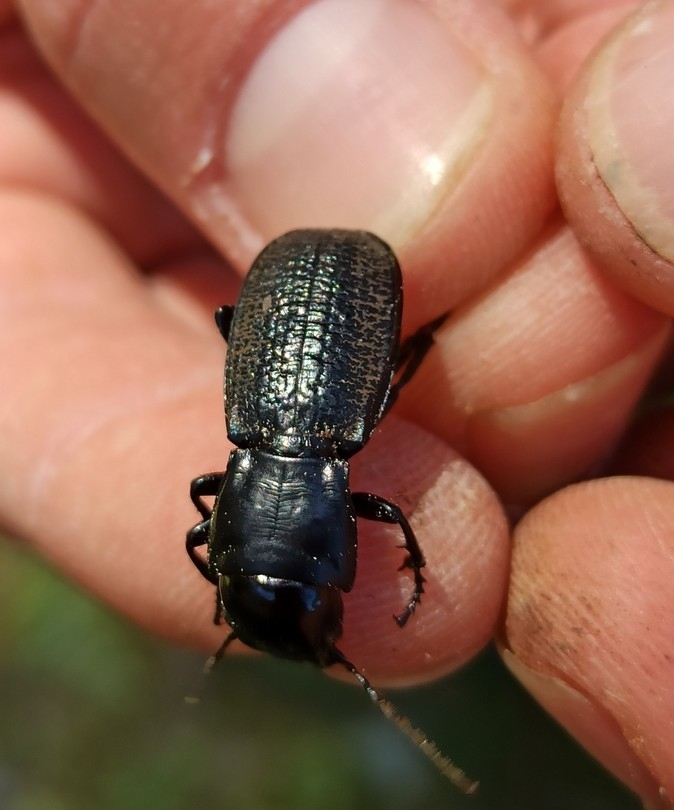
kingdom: Animalia
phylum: Arthropoda
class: Insecta
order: Coleoptera
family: Carabidae
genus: Percus
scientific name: Percus plicatus
